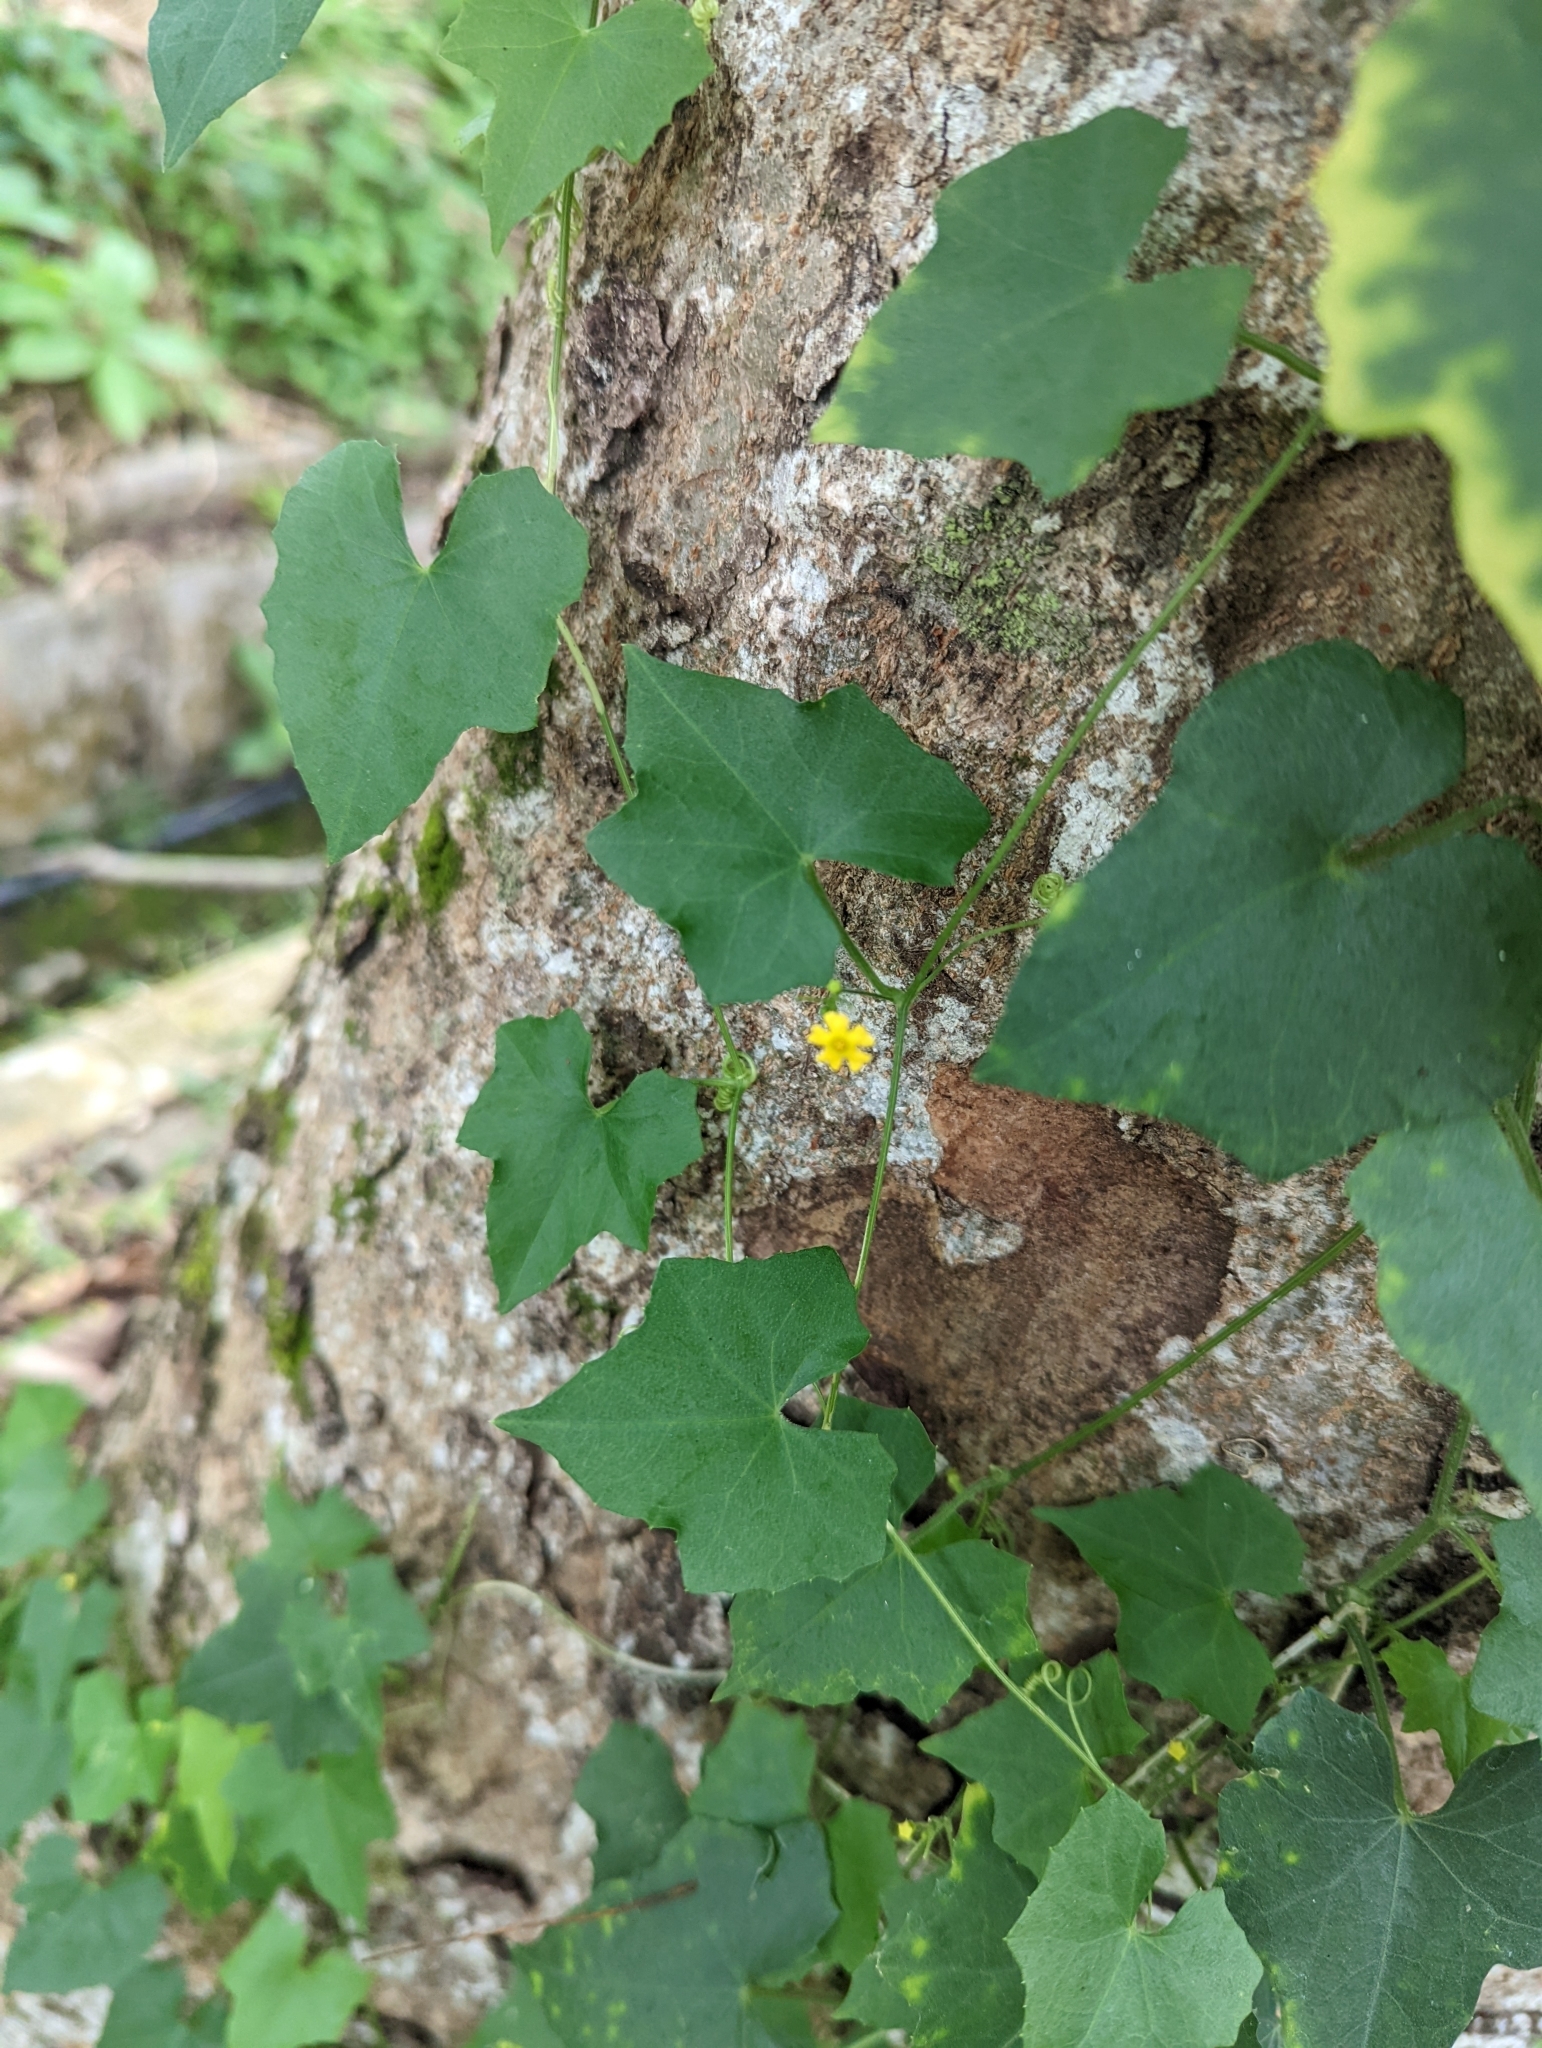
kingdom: Plantae
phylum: Tracheophyta
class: Magnoliopsida
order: Cucurbitales
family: Cucurbitaceae
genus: Melothria
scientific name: Melothria pendula
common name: Creeping-cucumber
